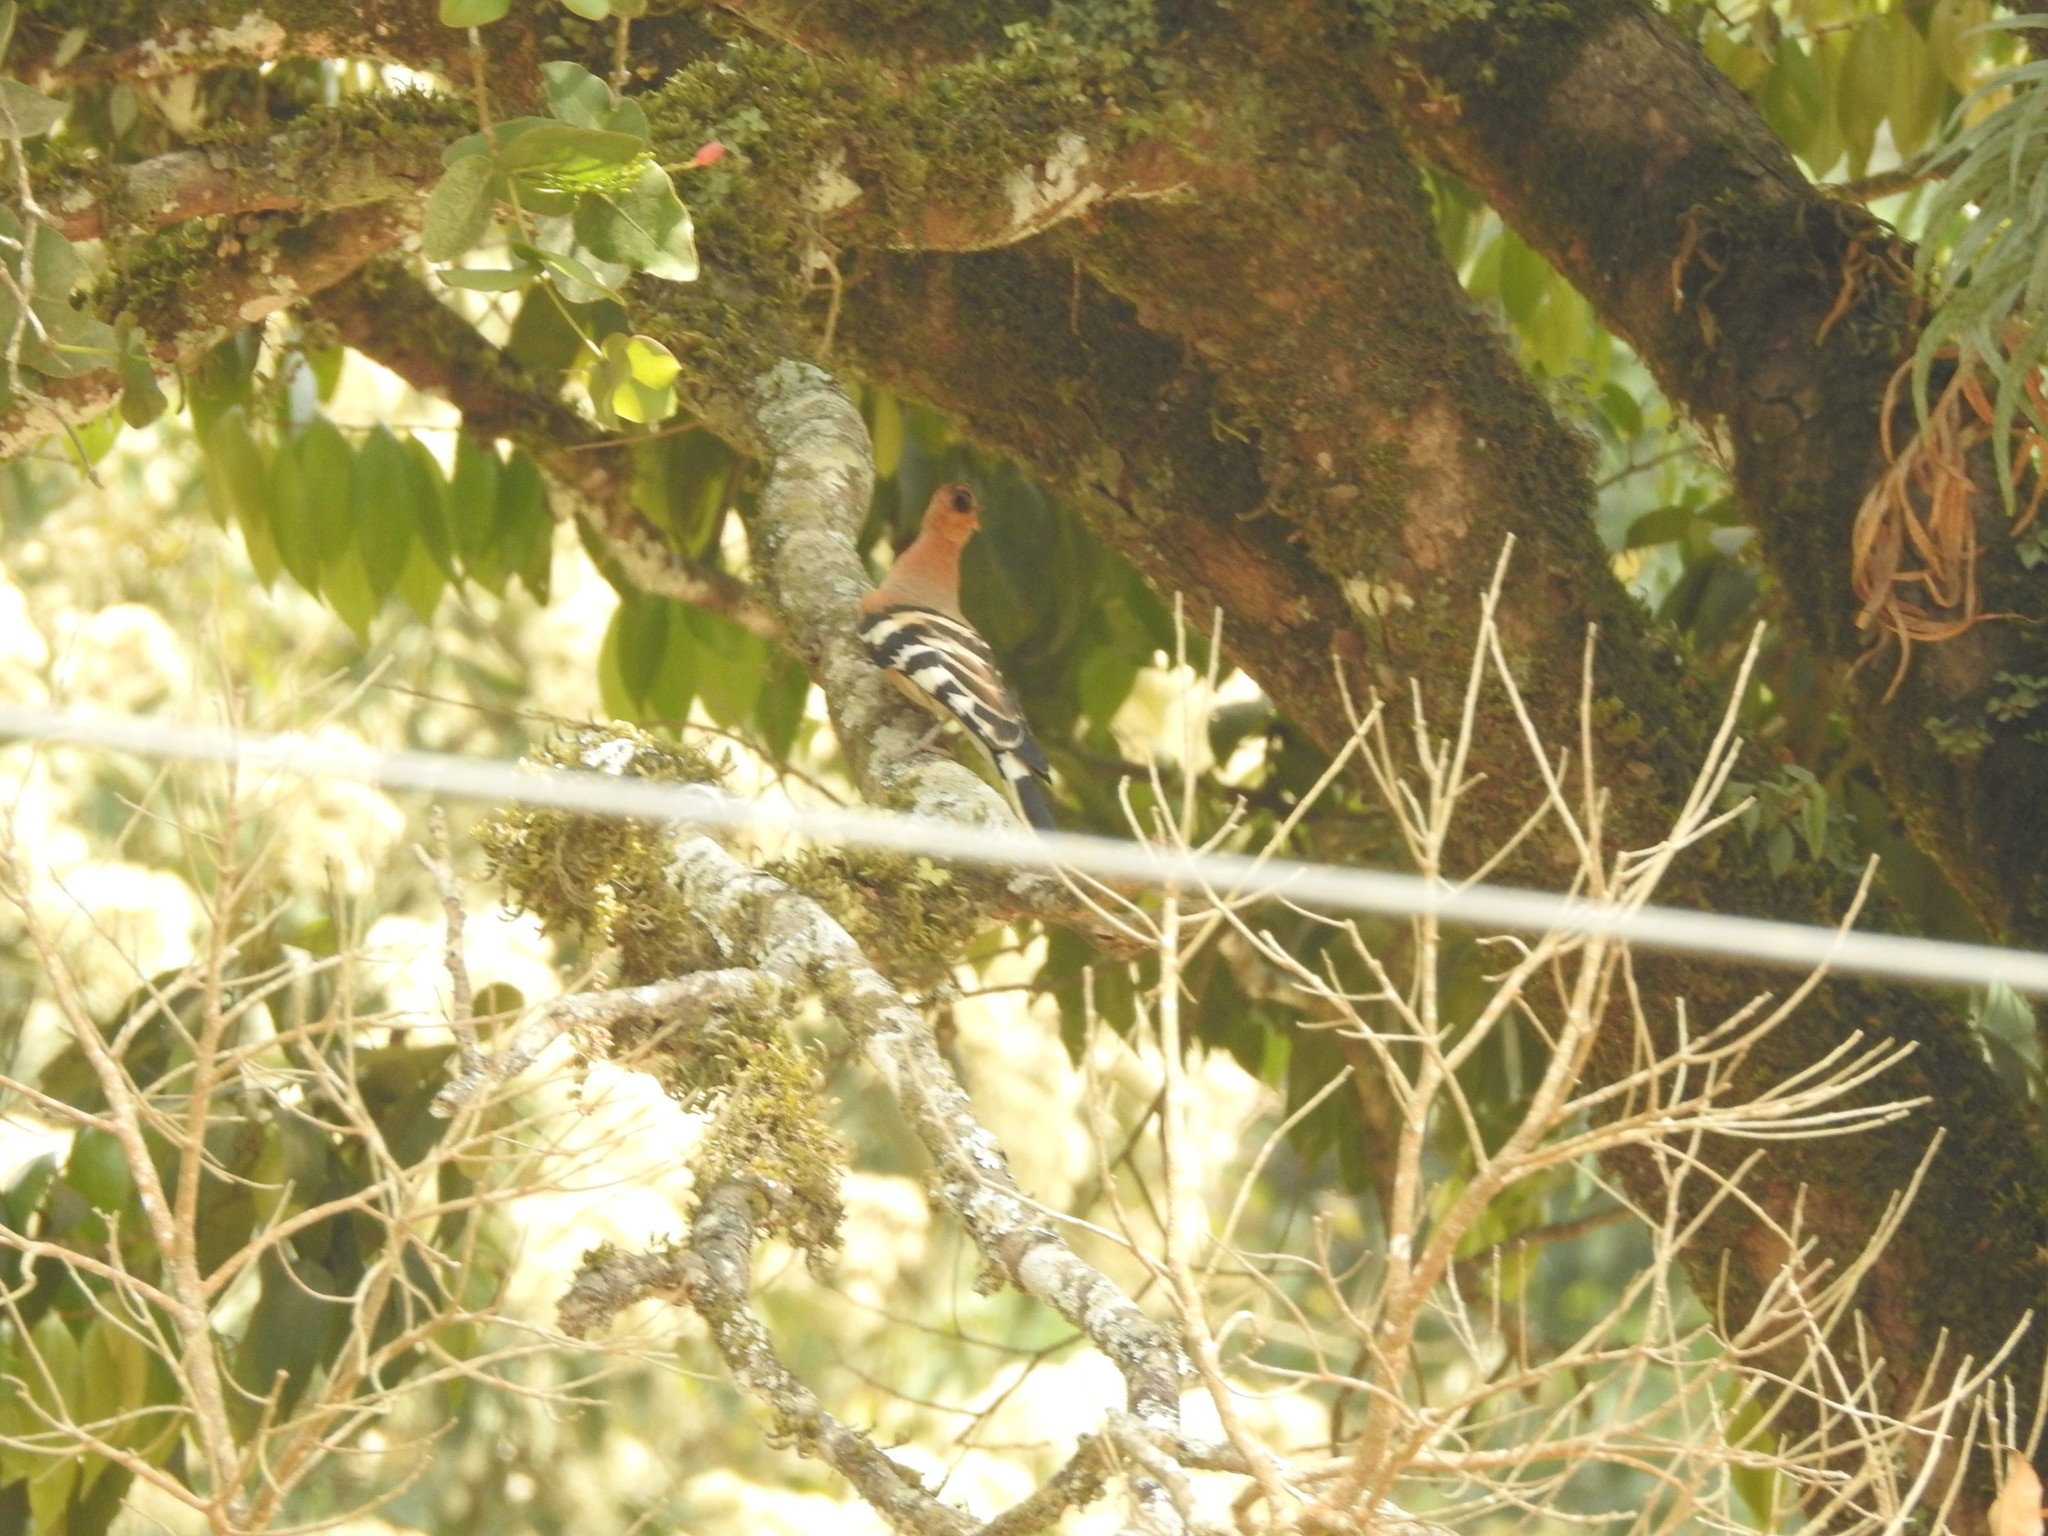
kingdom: Animalia
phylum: Chordata
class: Aves
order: Bucerotiformes
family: Upupidae
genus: Upupa
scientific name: Upupa epops
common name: Eurasian hoopoe
